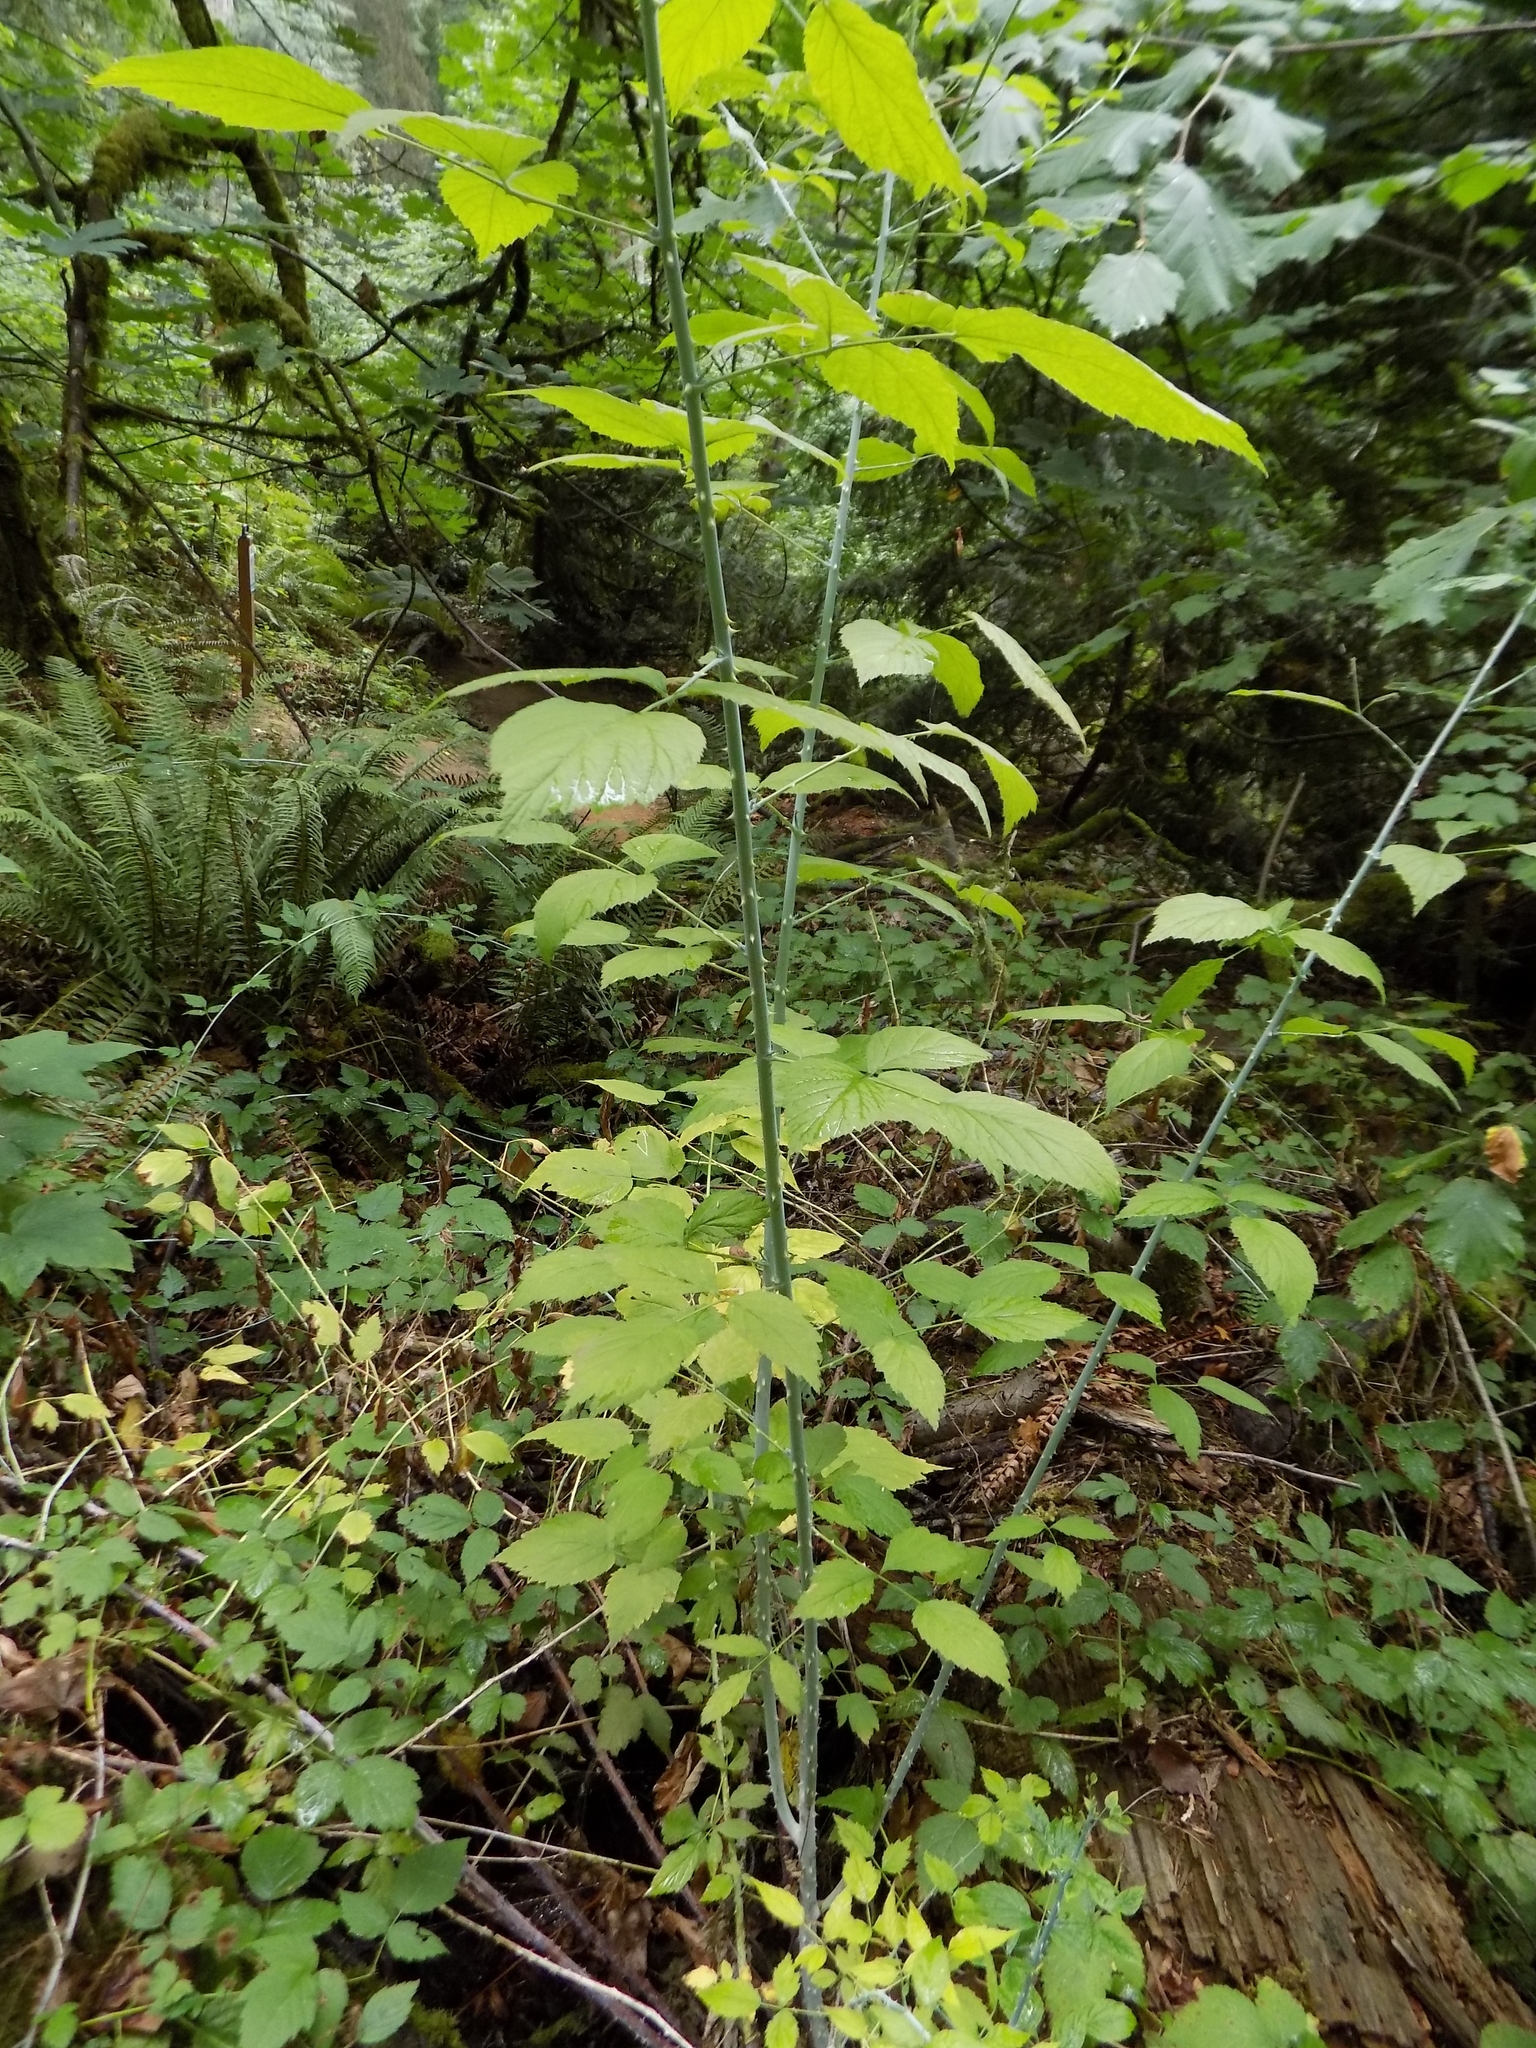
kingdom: Plantae
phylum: Tracheophyta
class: Magnoliopsida
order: Rosales
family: Rosaceae
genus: Rubus
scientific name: Rubus leucodermis
